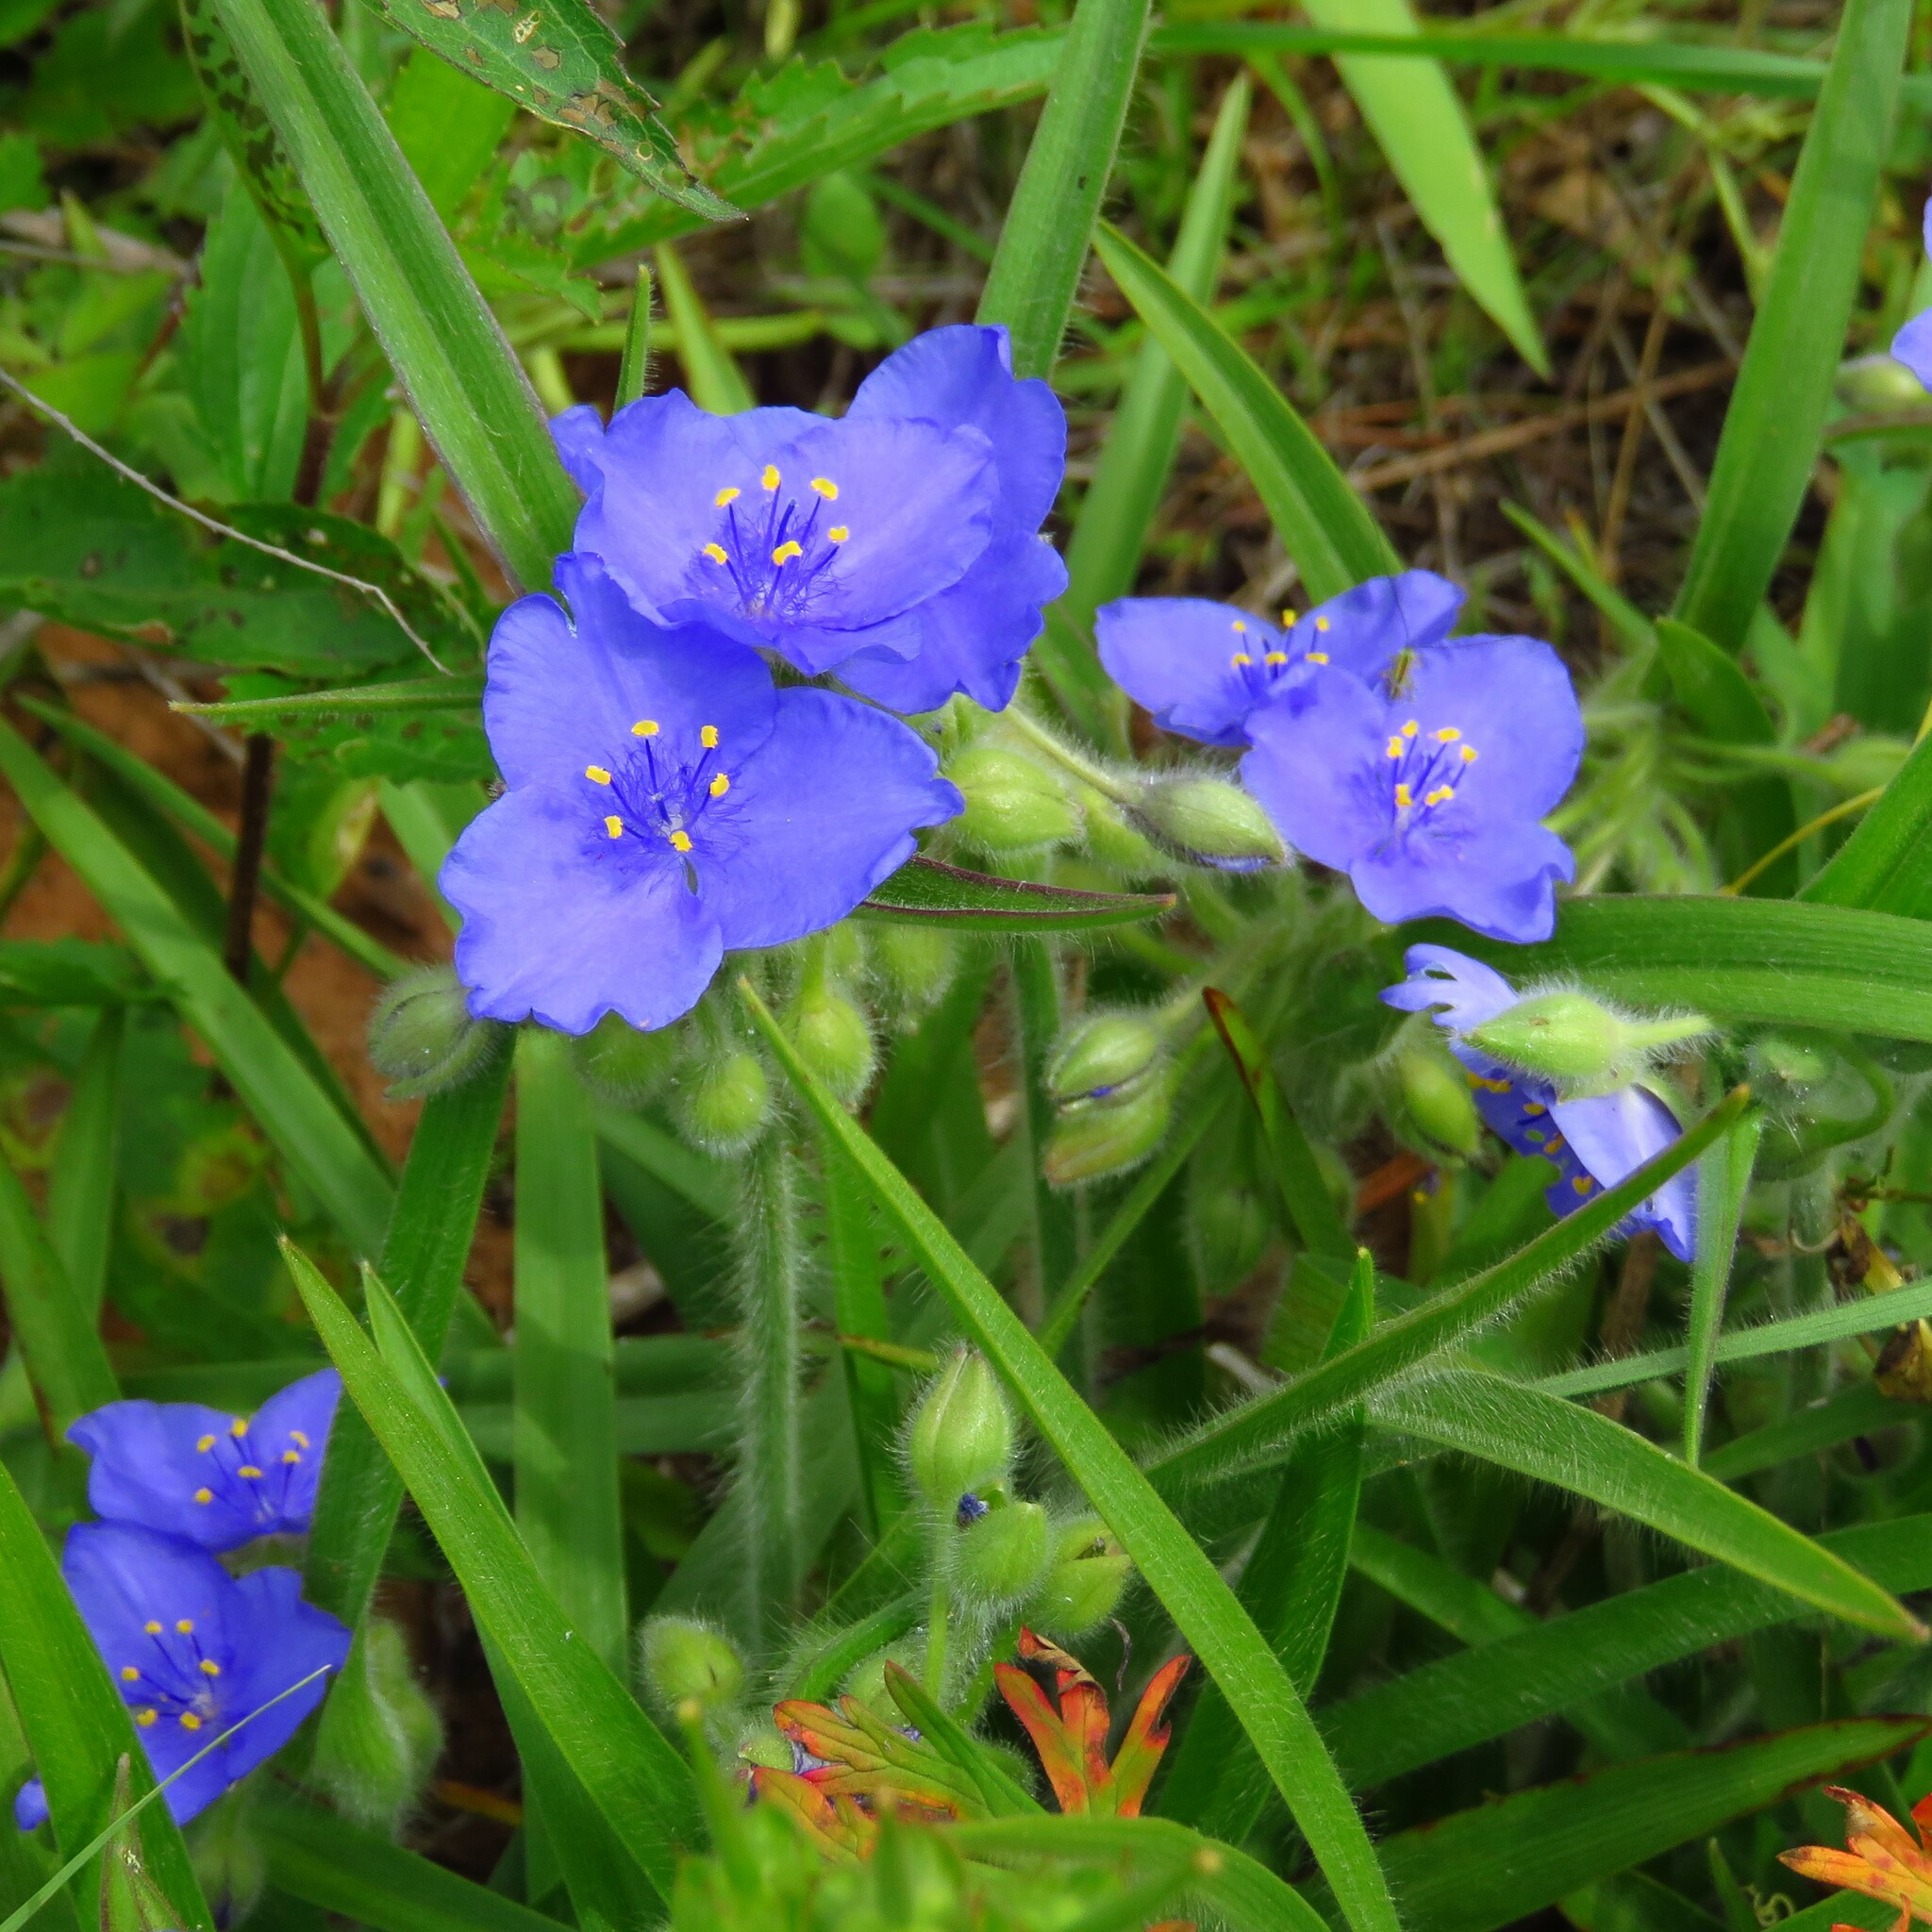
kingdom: Plantae
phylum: Tracheophyta
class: Liliopsida
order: Commelinales
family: Commelinaceae
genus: Tradescantia
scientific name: Tradescantia hirsutiflora
